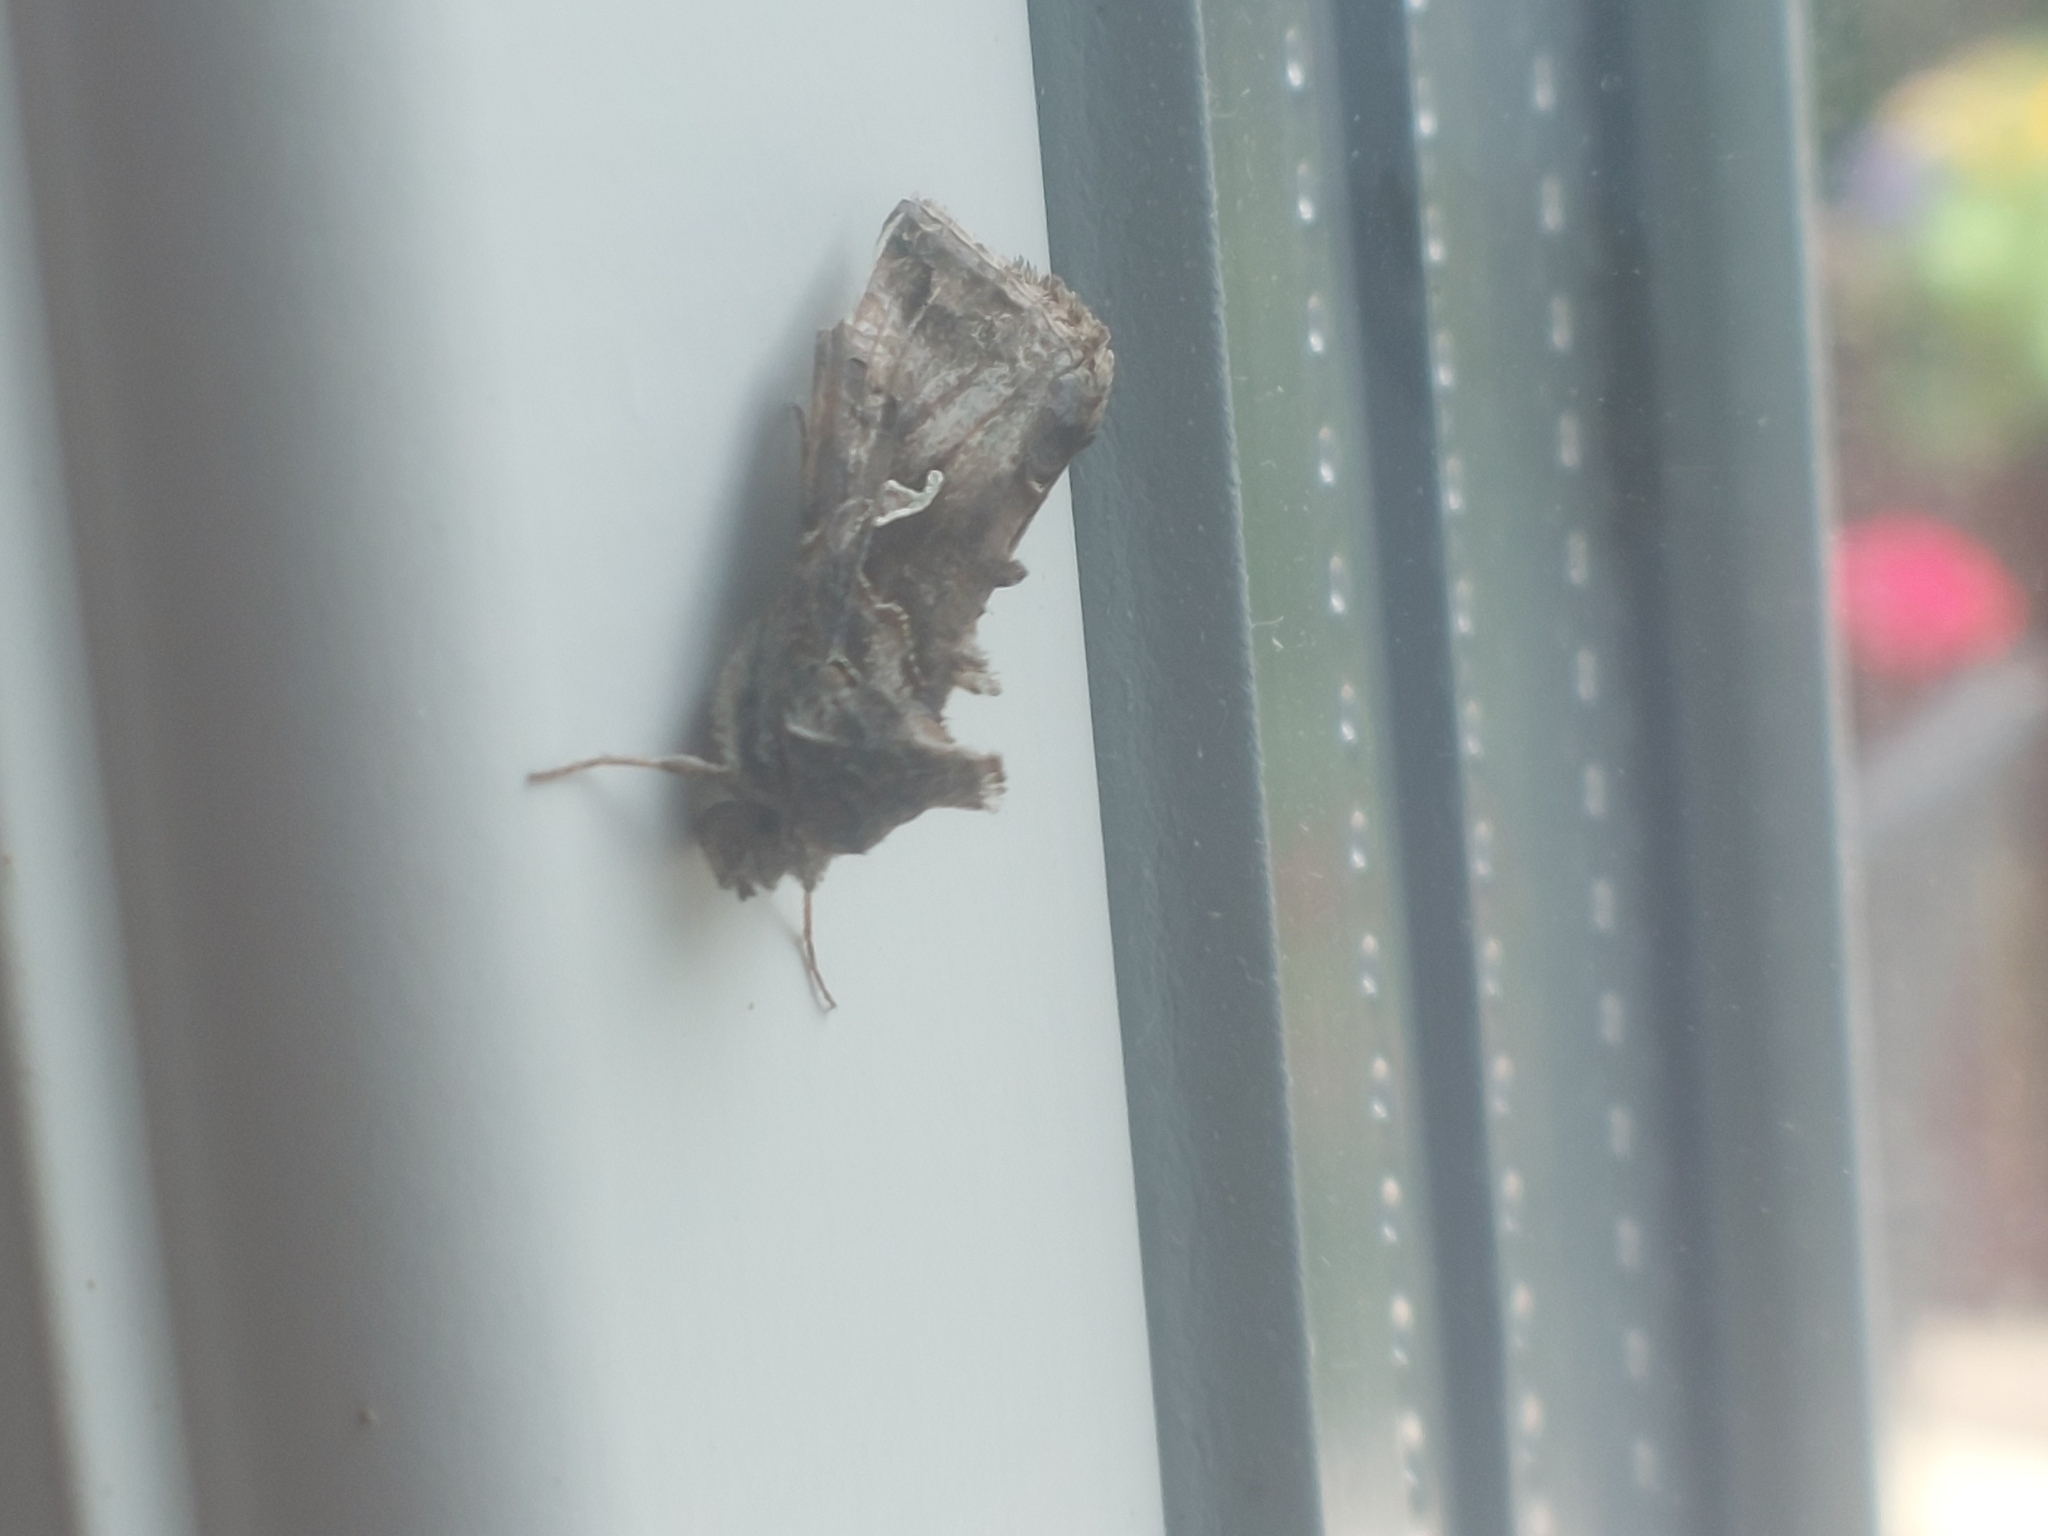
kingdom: Animalia
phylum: Arthropoda
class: Insecta
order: Lepidoptera
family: Noctuidae
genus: Autographa
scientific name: Autographa gamma
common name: Silver y
